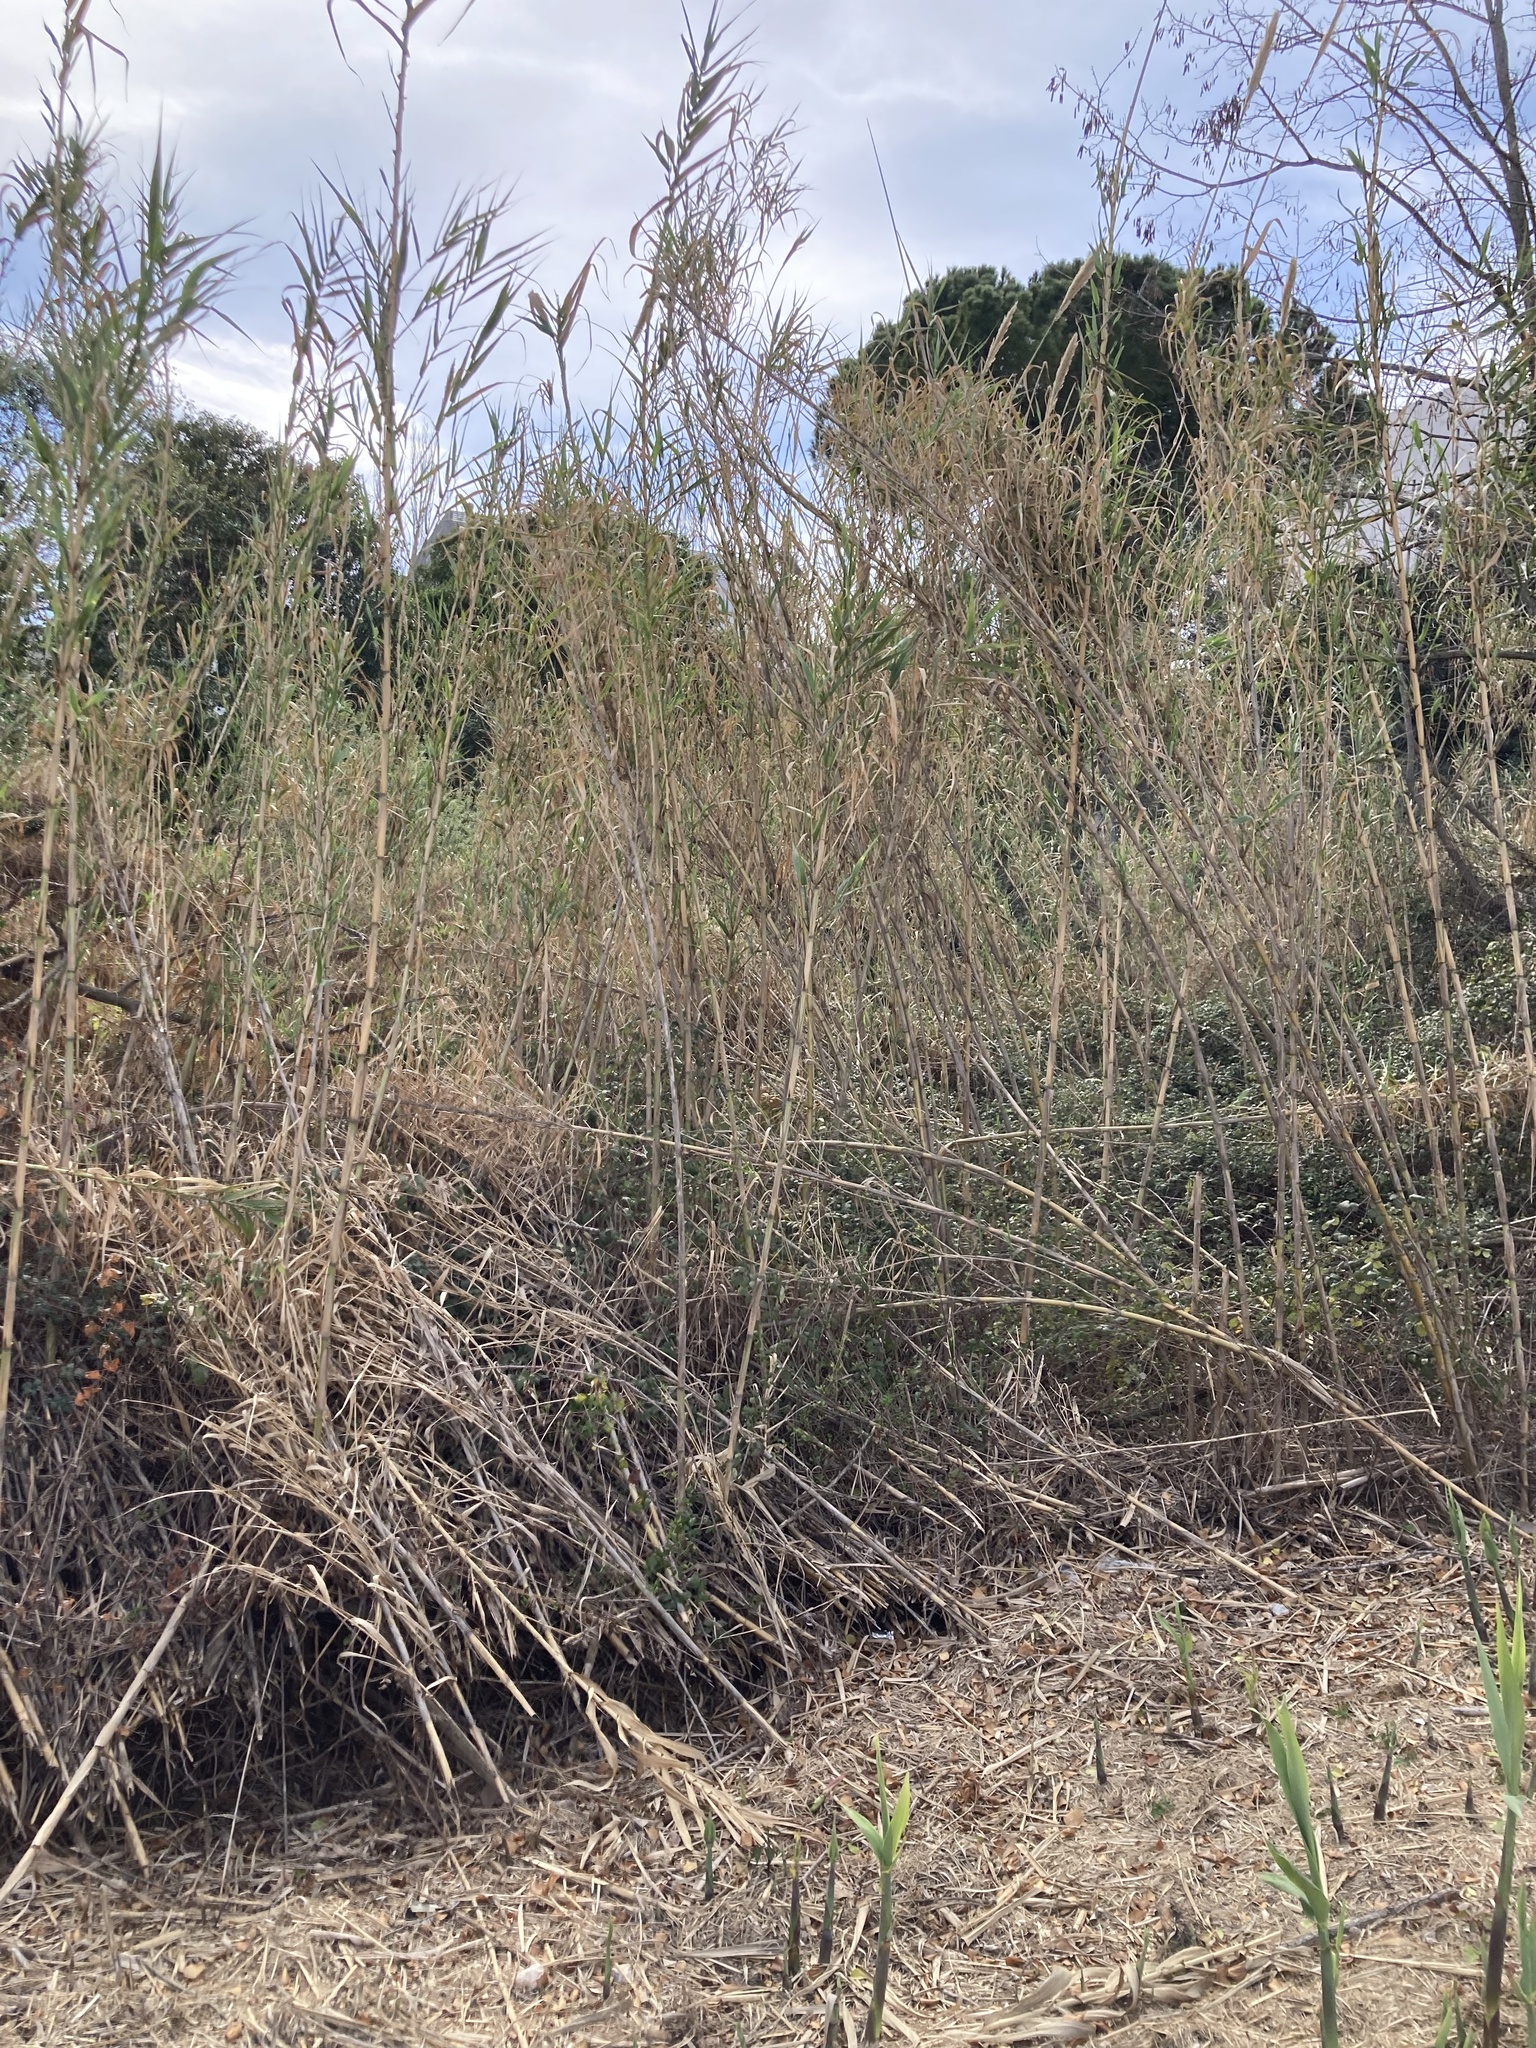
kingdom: Plantae
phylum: Tracheophyta
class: Liliopsida
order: Poales
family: Poaceae
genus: Arundo
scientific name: Arundo donax
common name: Giant reed
